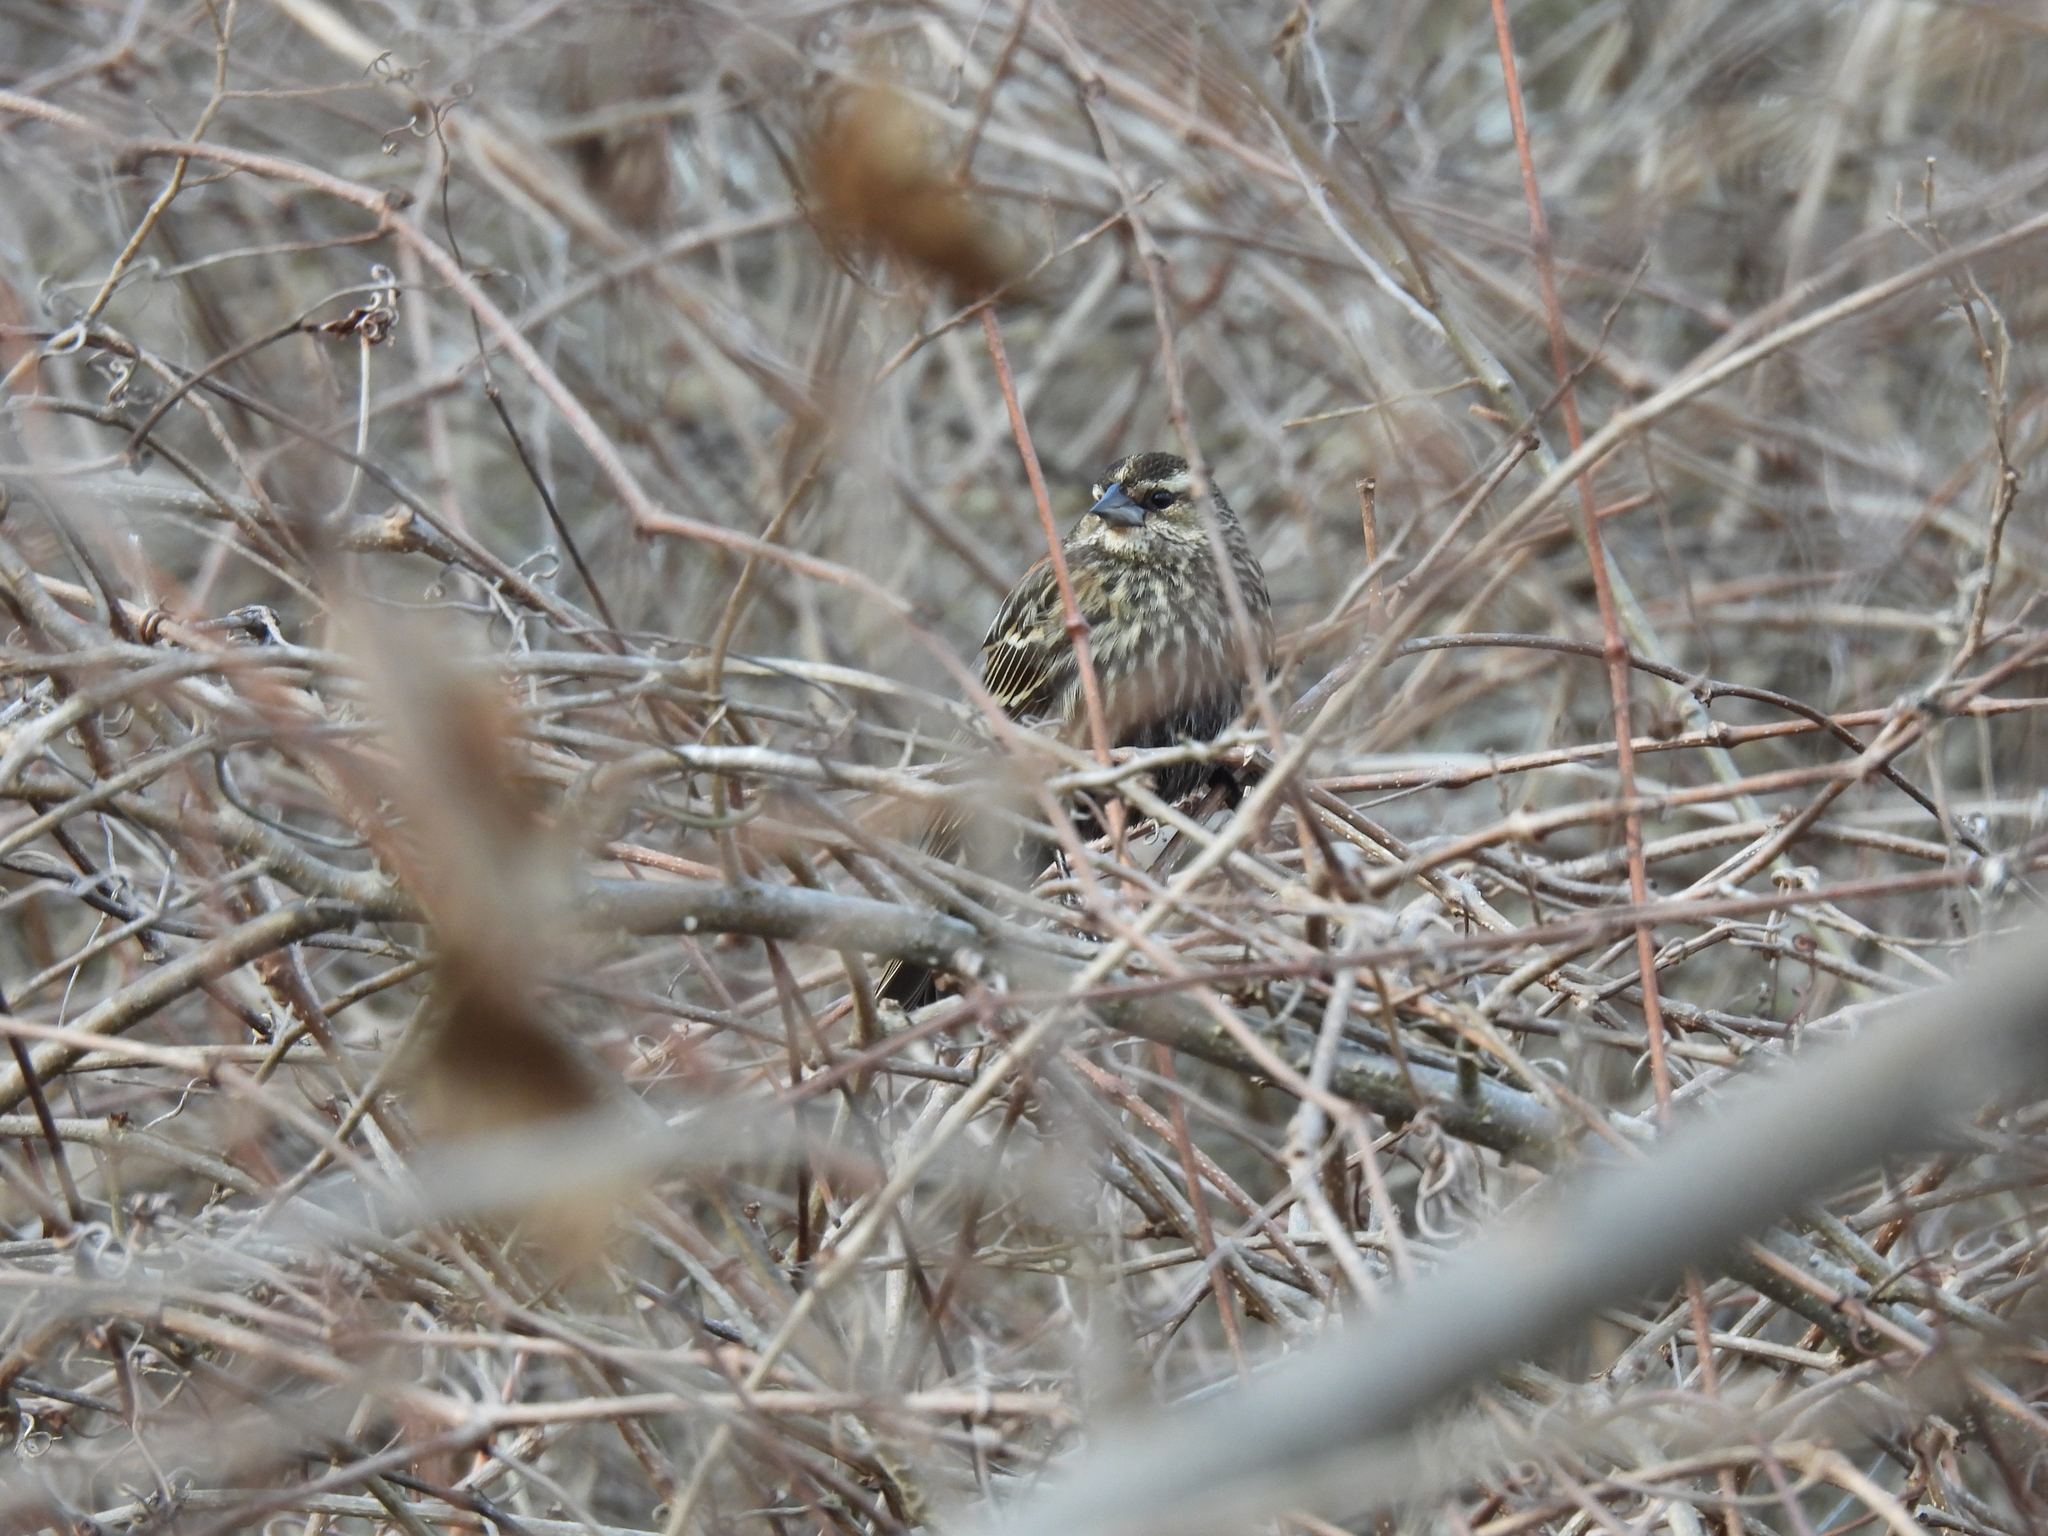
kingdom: Animalia
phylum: Chordata
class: Aves
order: Passeriformes
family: Icteridae
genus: Agelaius
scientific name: Agelaius phoeniceus
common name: Red-winged blackbird
